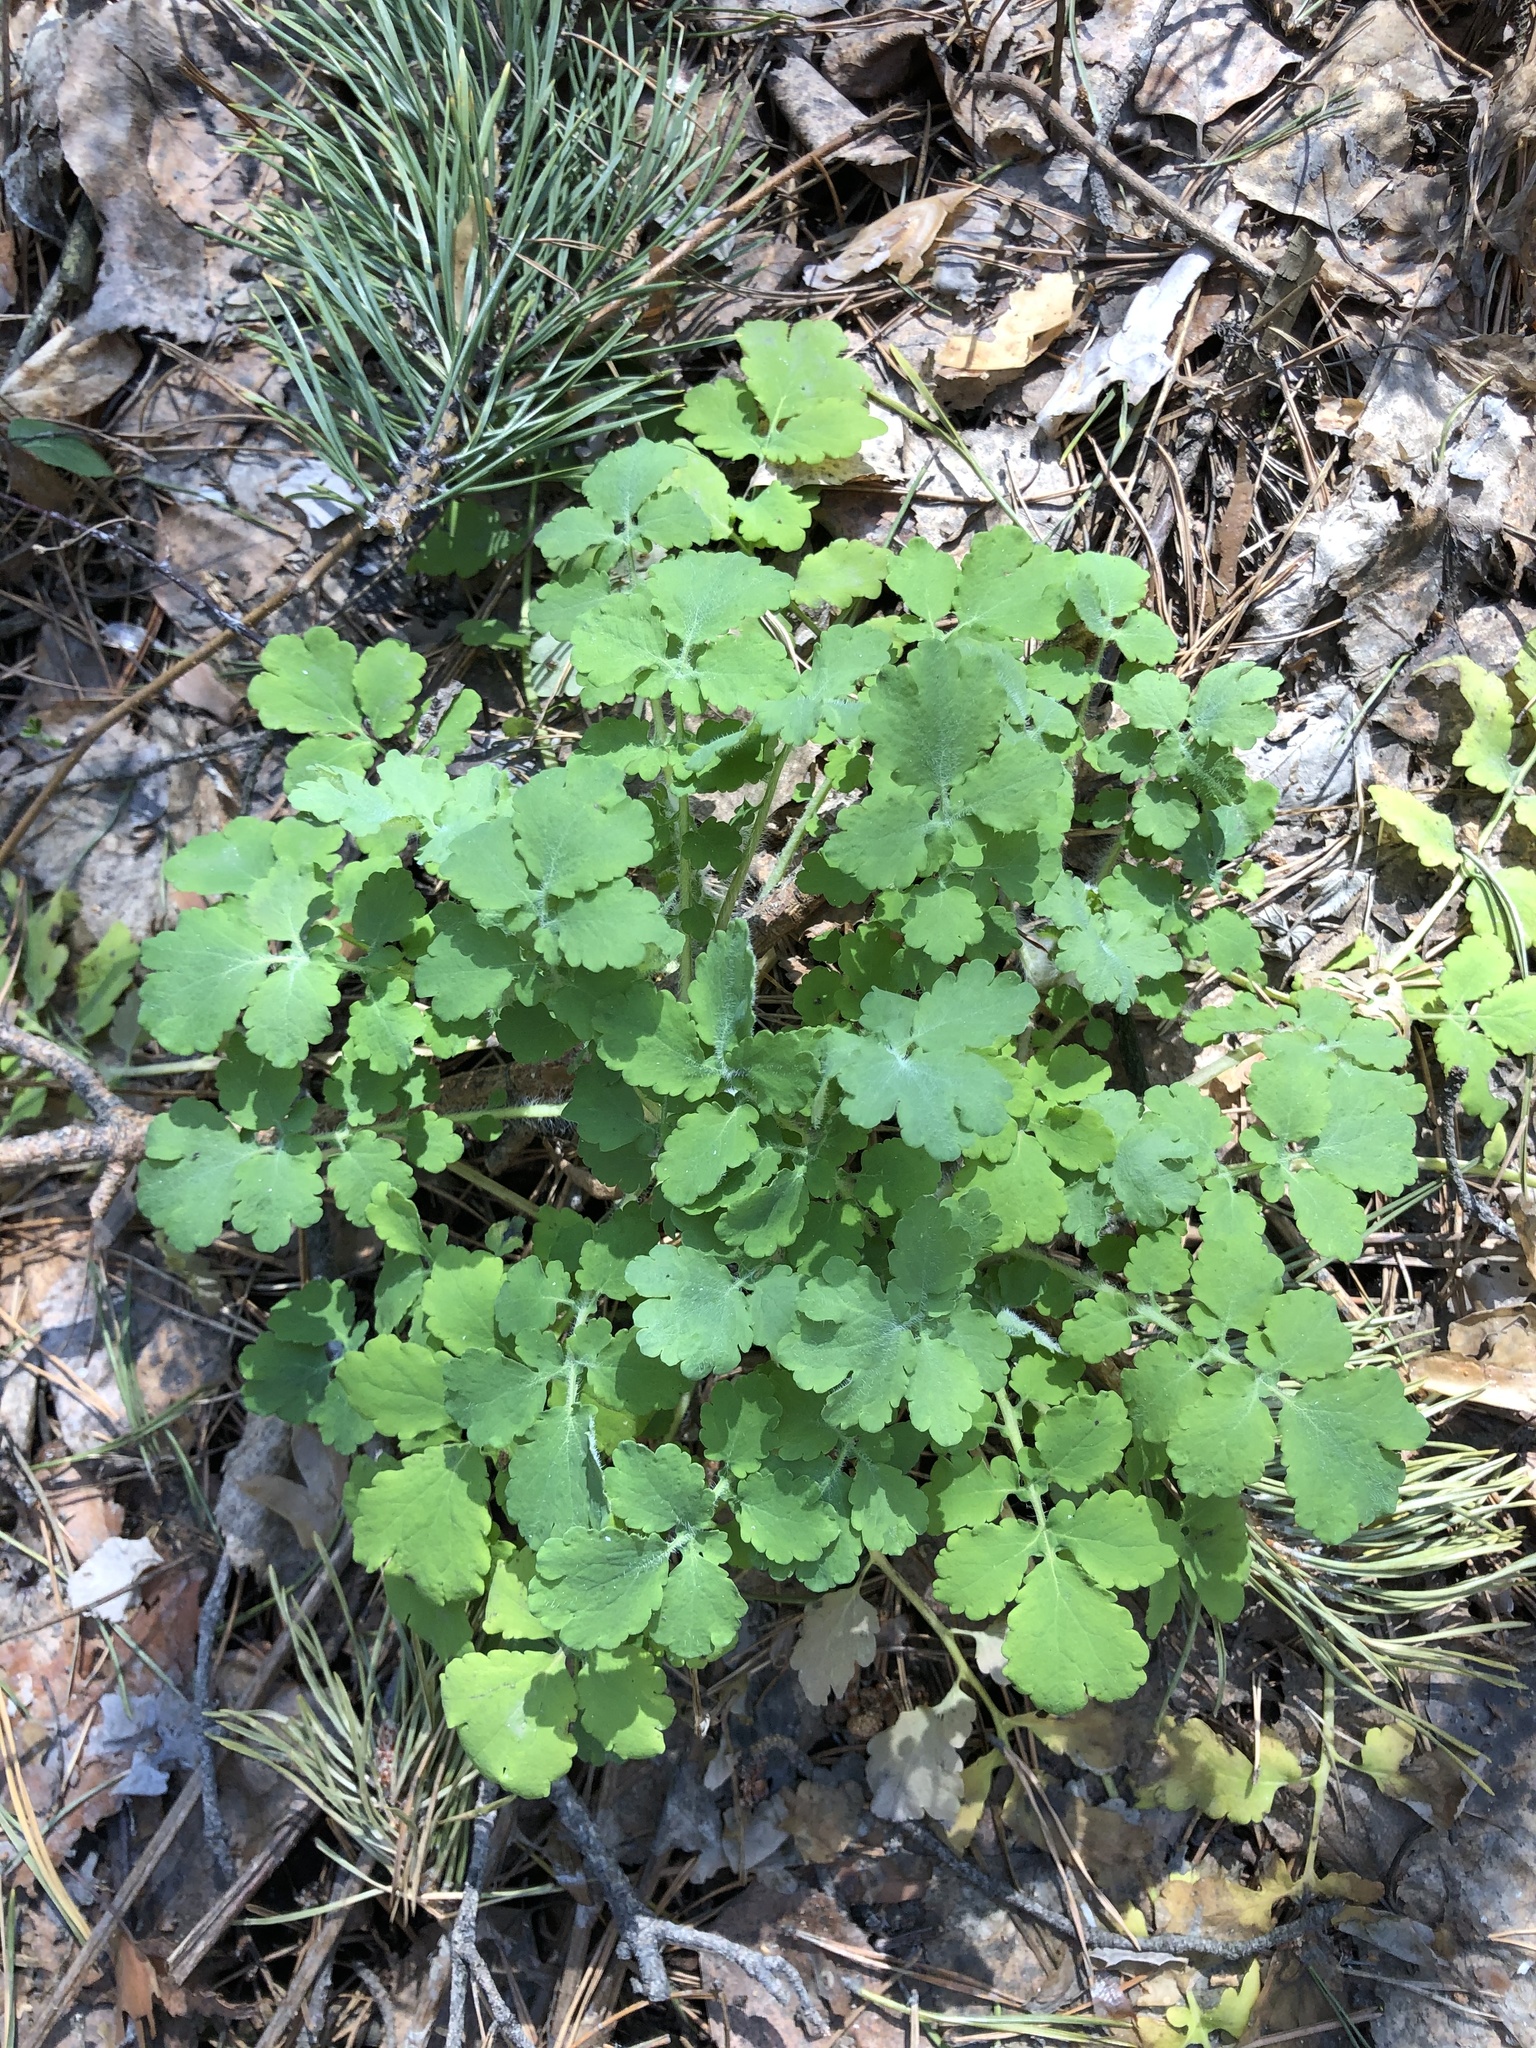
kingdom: Plantae
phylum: Tracheophyta
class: Magnoliopsida
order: Ranunculales
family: Papaveraceae
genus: Chelidonium
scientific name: Chelidonium majus
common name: Greater celandine
